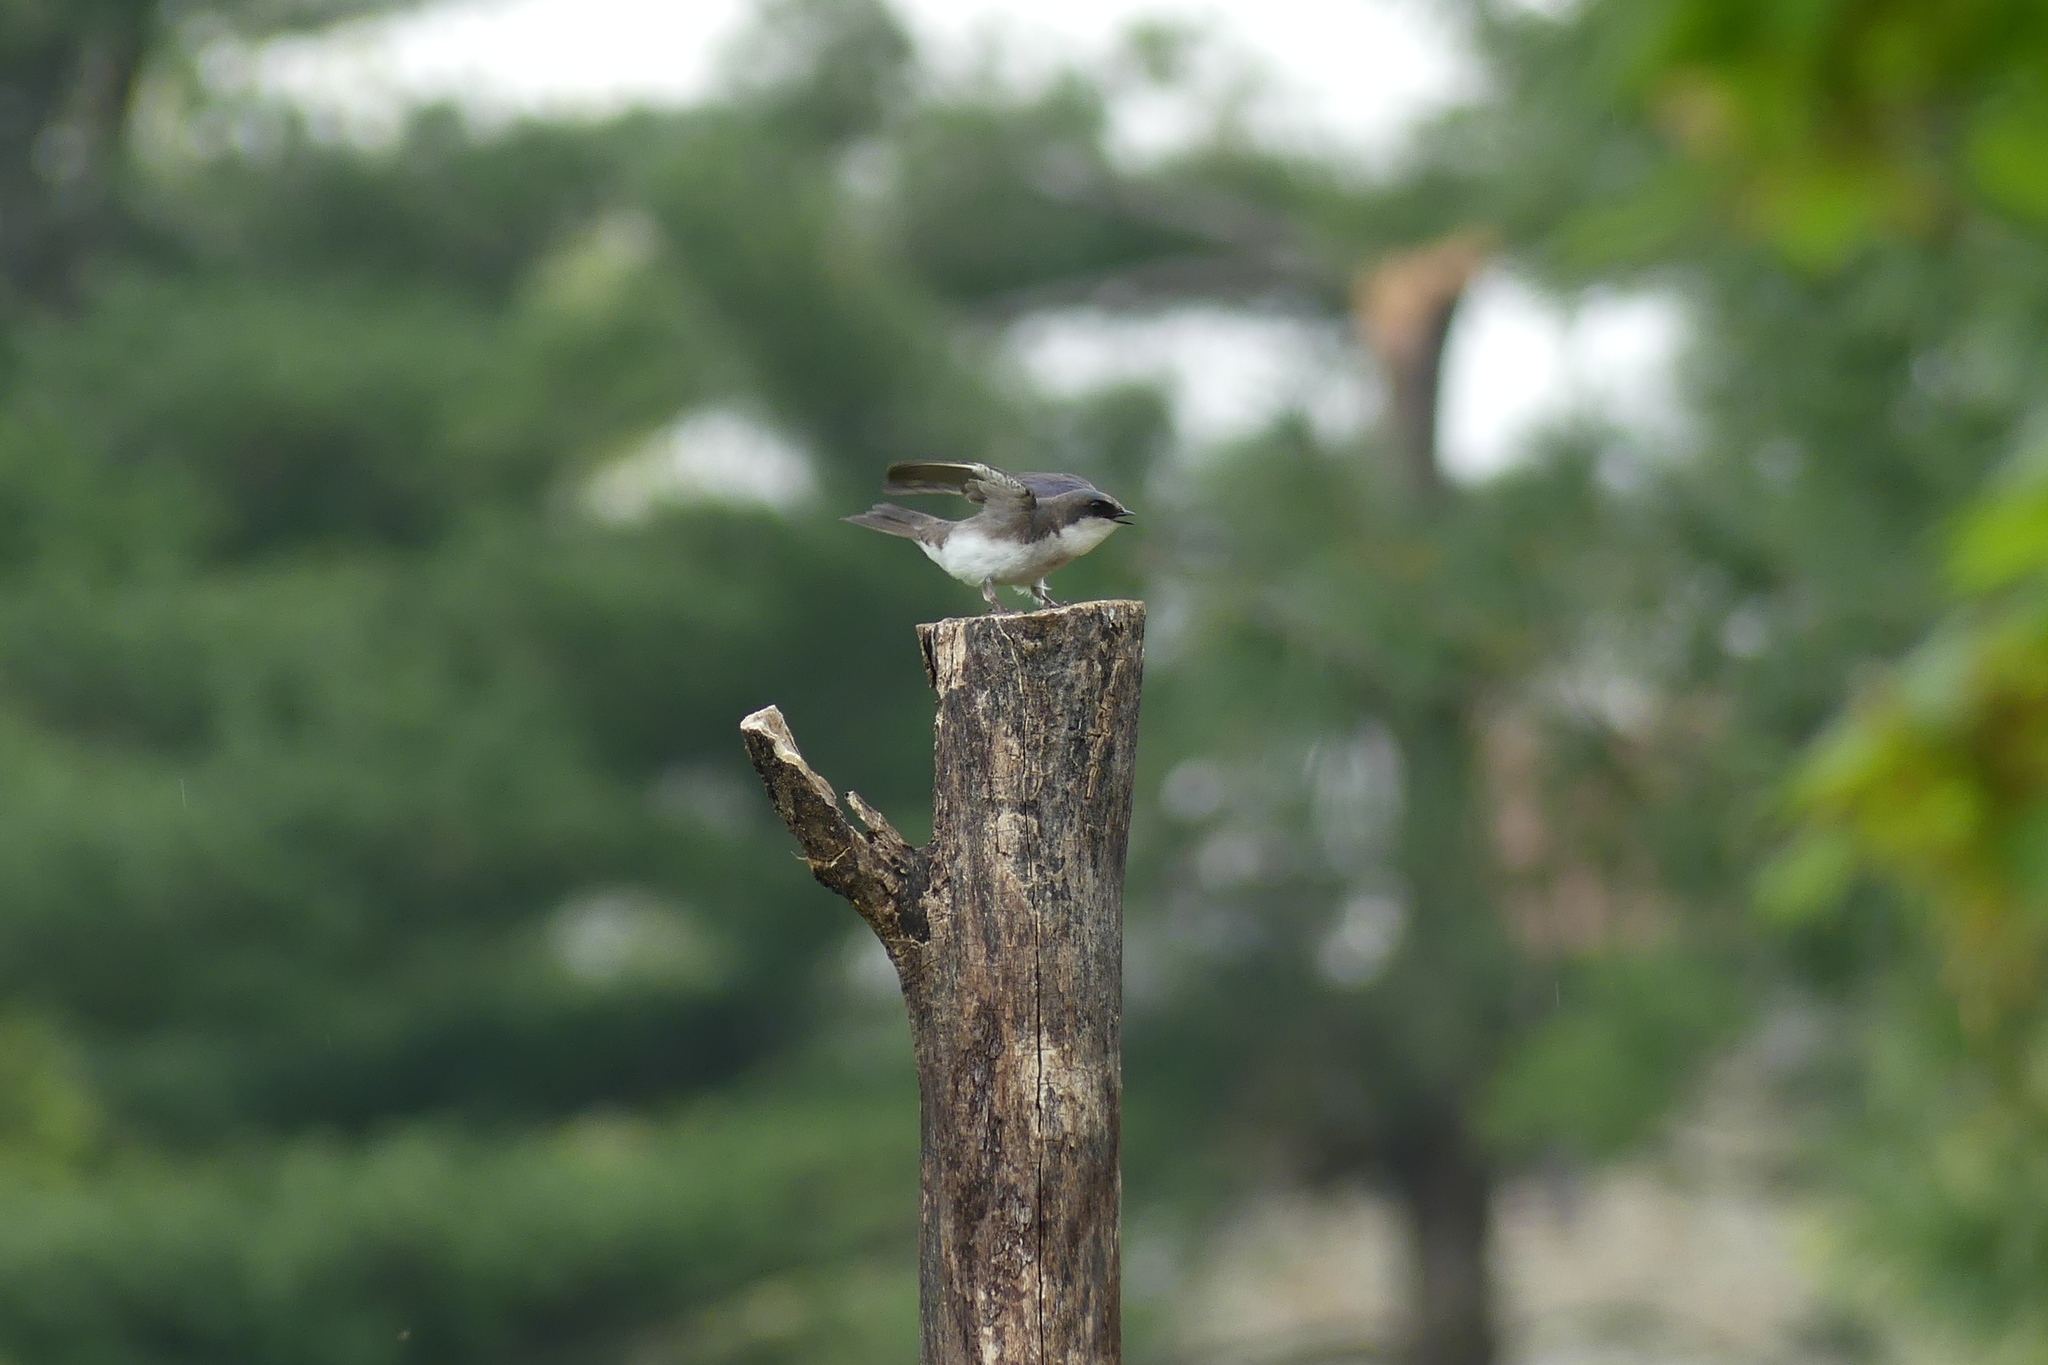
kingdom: Animalia
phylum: Chordata
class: Aves
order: Passeriformes
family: Hirundinidae
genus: Tachycineta
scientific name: Tachycineta bicolor
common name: Tree swallow
